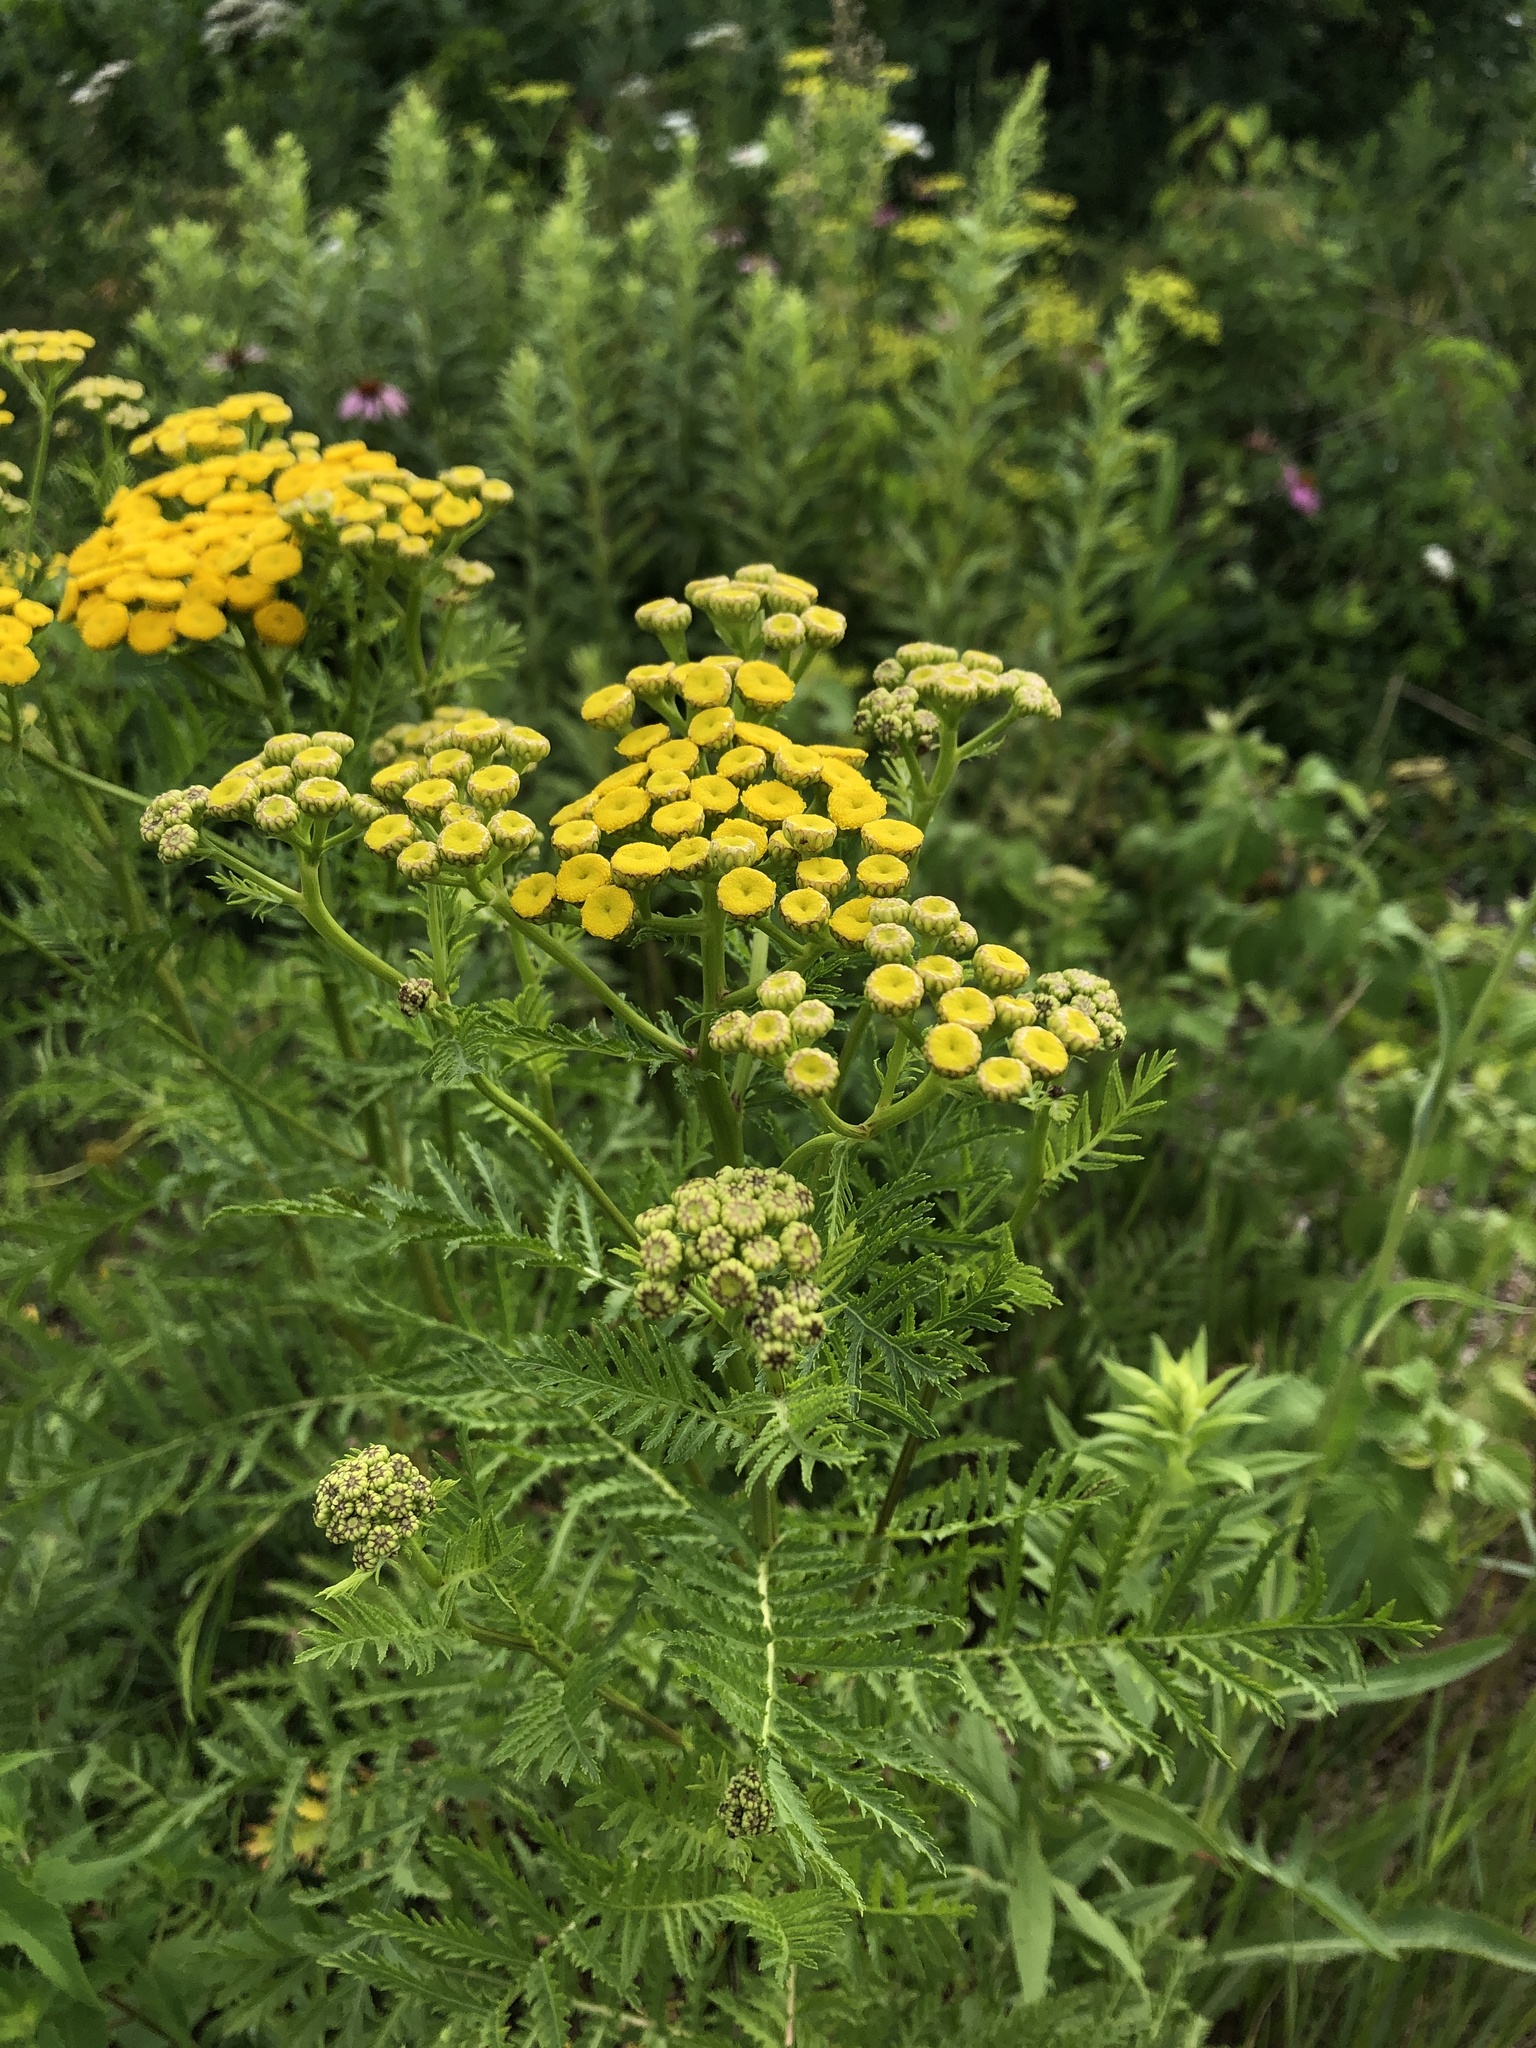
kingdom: Plantae
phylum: Tracheophyta
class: Magnoliopsida
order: Asterales
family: Asteraceae
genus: Tanacetum
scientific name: Tanacetum vulgare
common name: Common tansy
